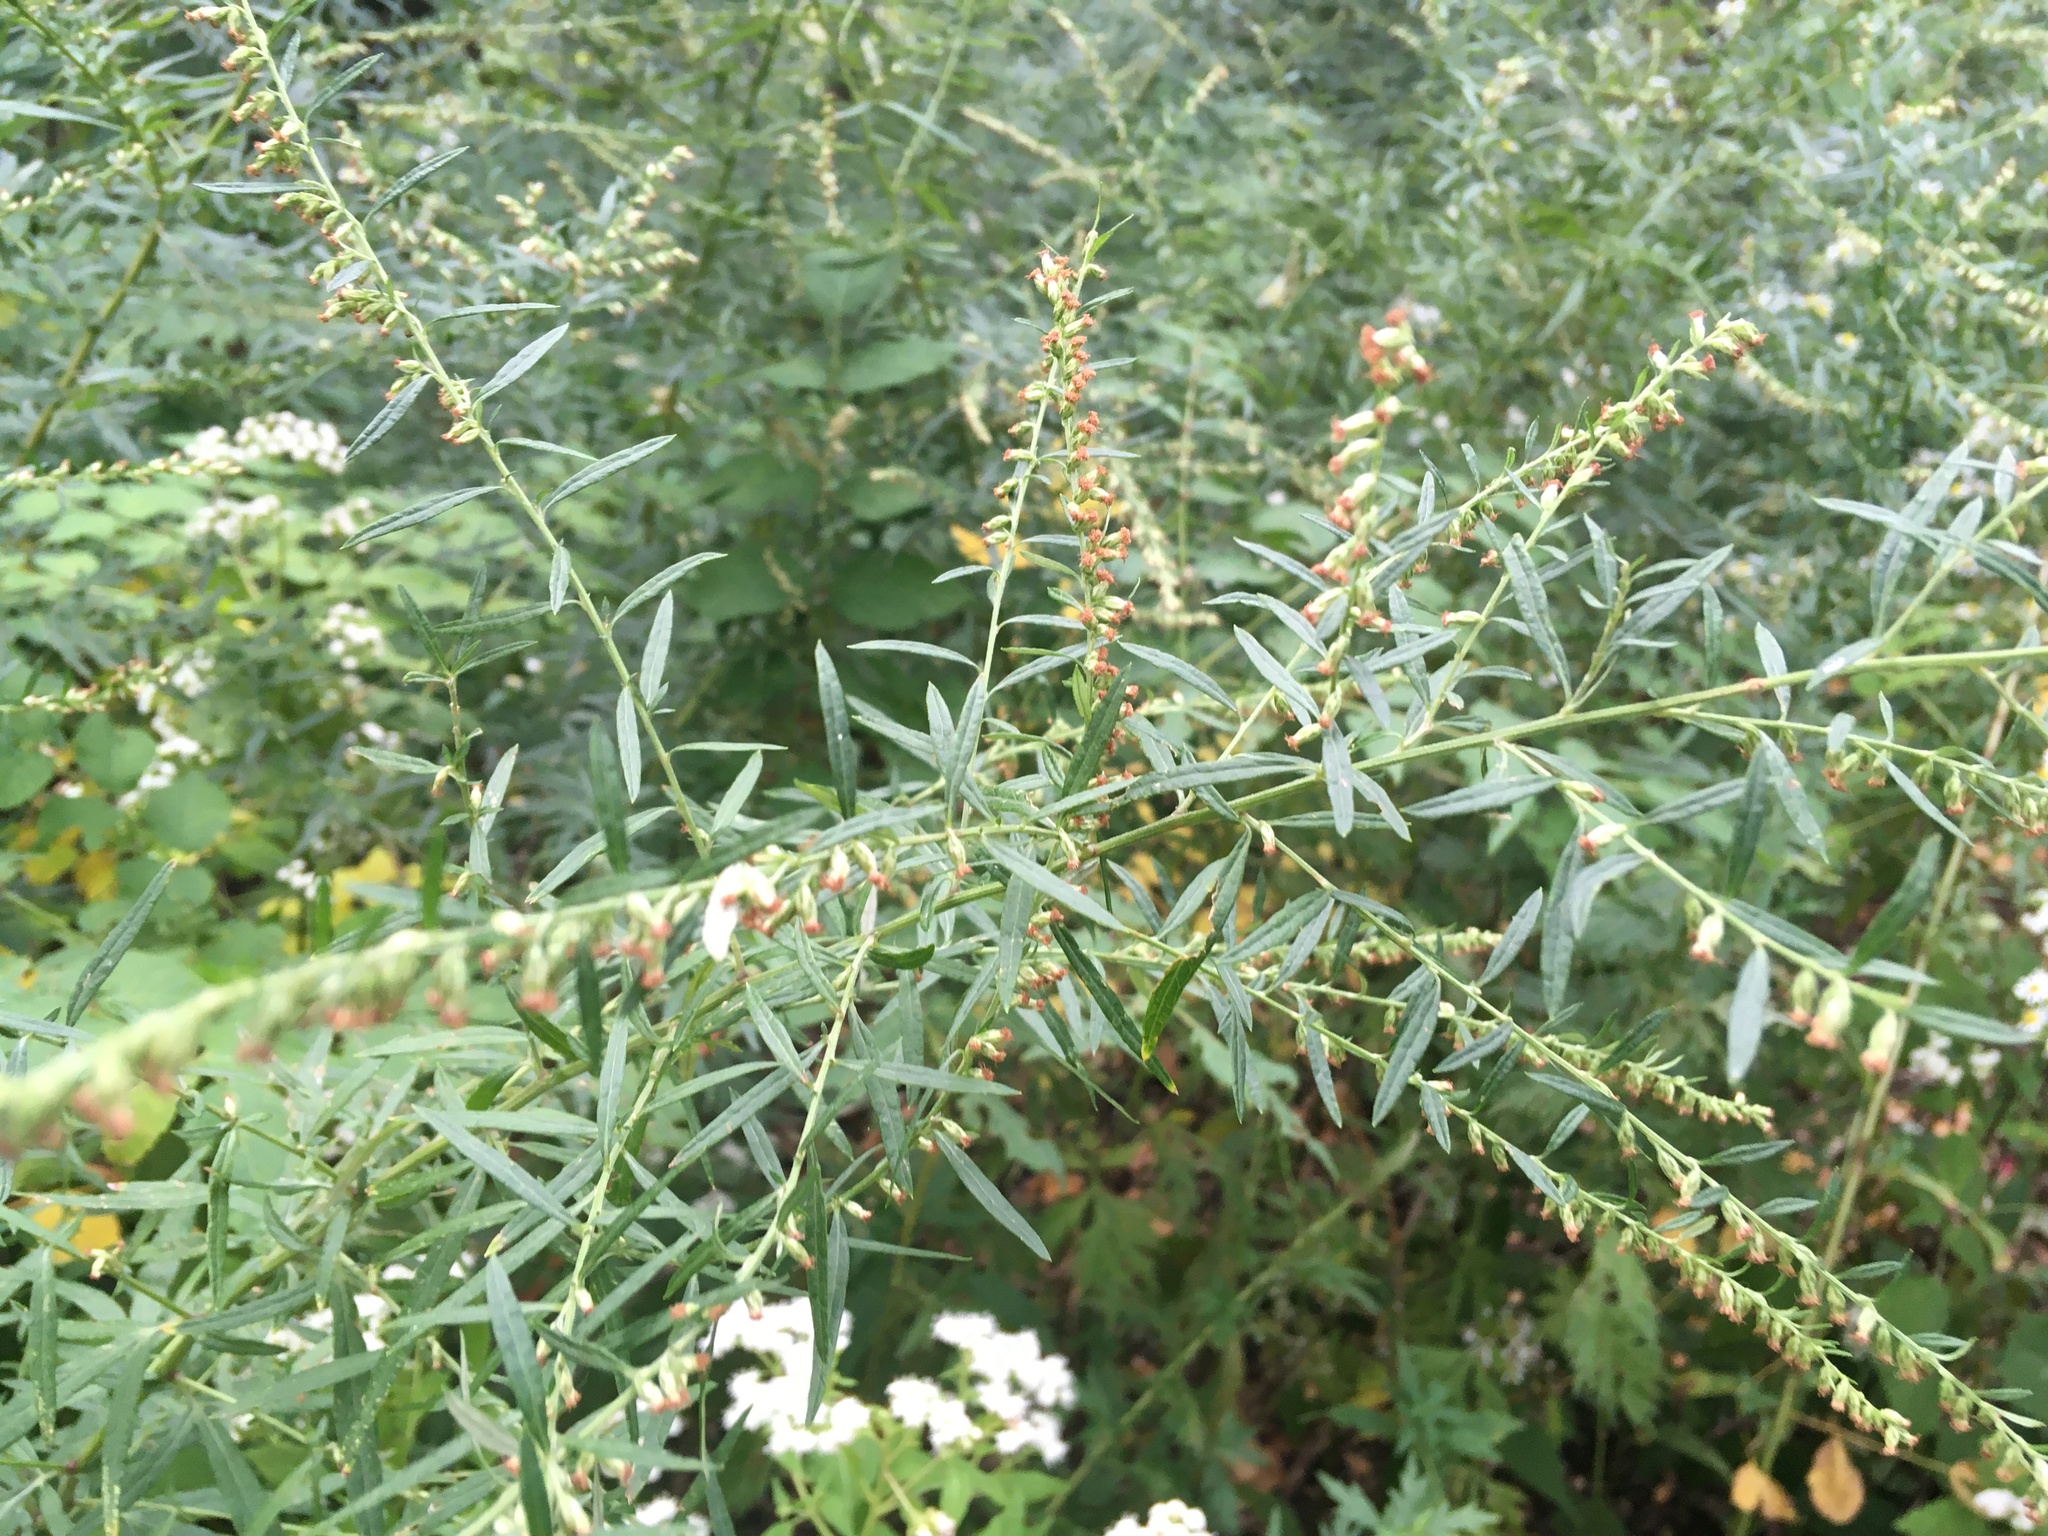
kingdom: Plantae
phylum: Tracheophyta
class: Magnoliopsida
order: Asterales
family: Asteraceae
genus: Artemisia
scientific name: Artemisia vulgaris
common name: Mugwort
